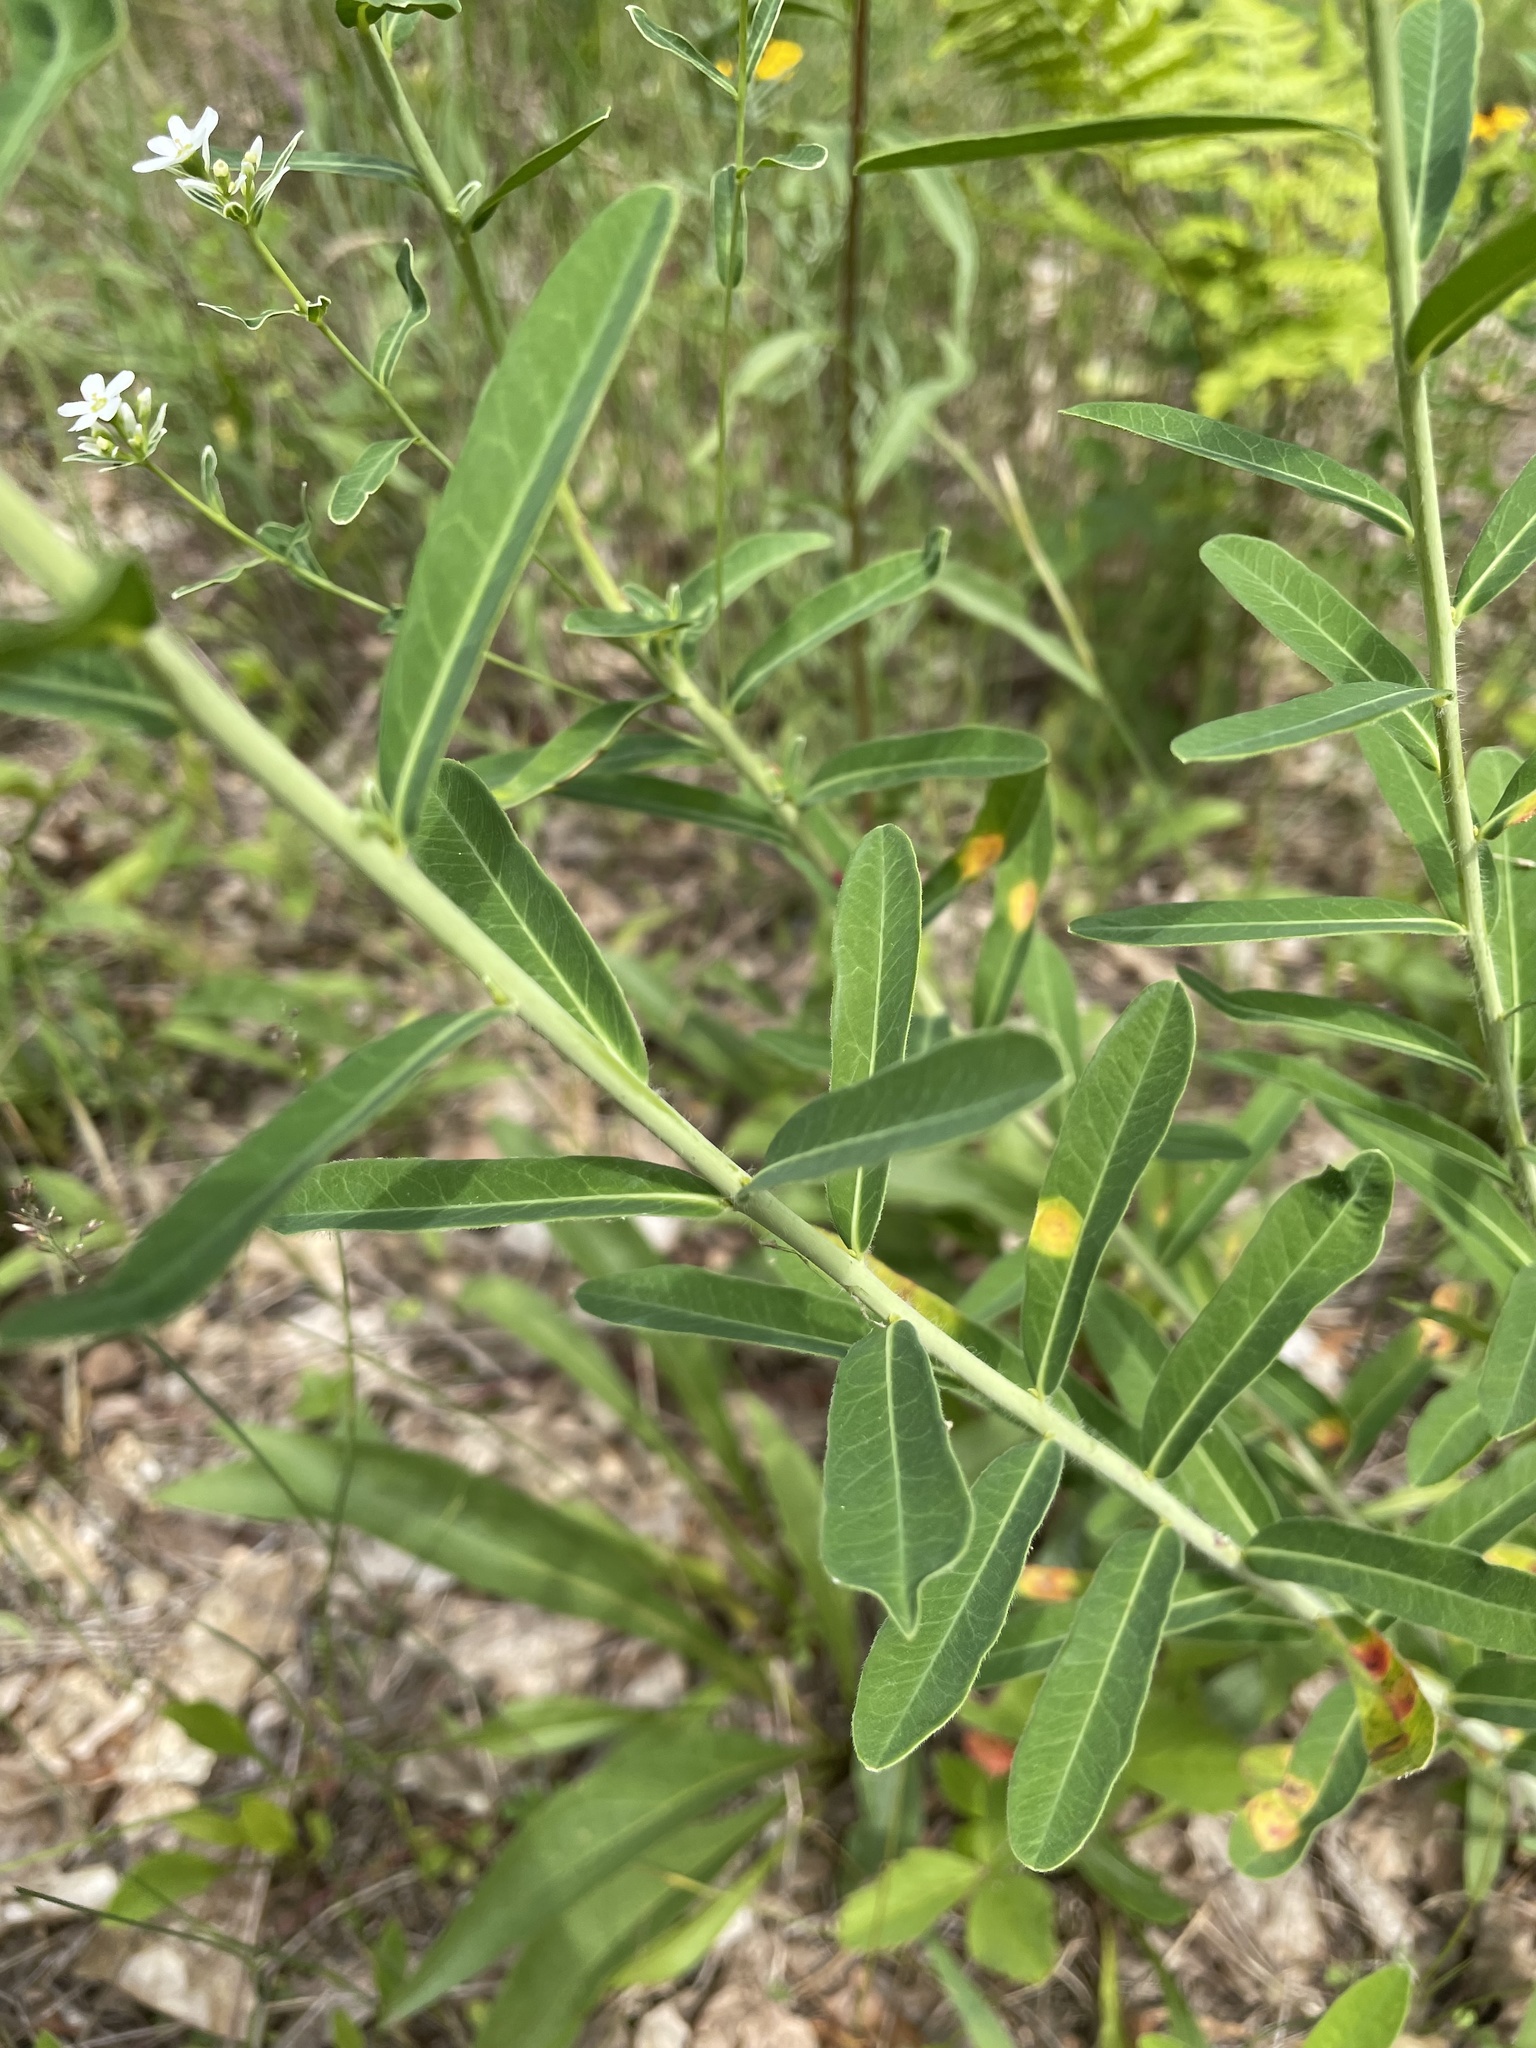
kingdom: Plantae
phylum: Tracheophyta
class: Magnoliopsida
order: Malpighiales
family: Euphorbiaceae
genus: Euphorbia
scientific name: Euphorbia corollata
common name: Flowering spurge
